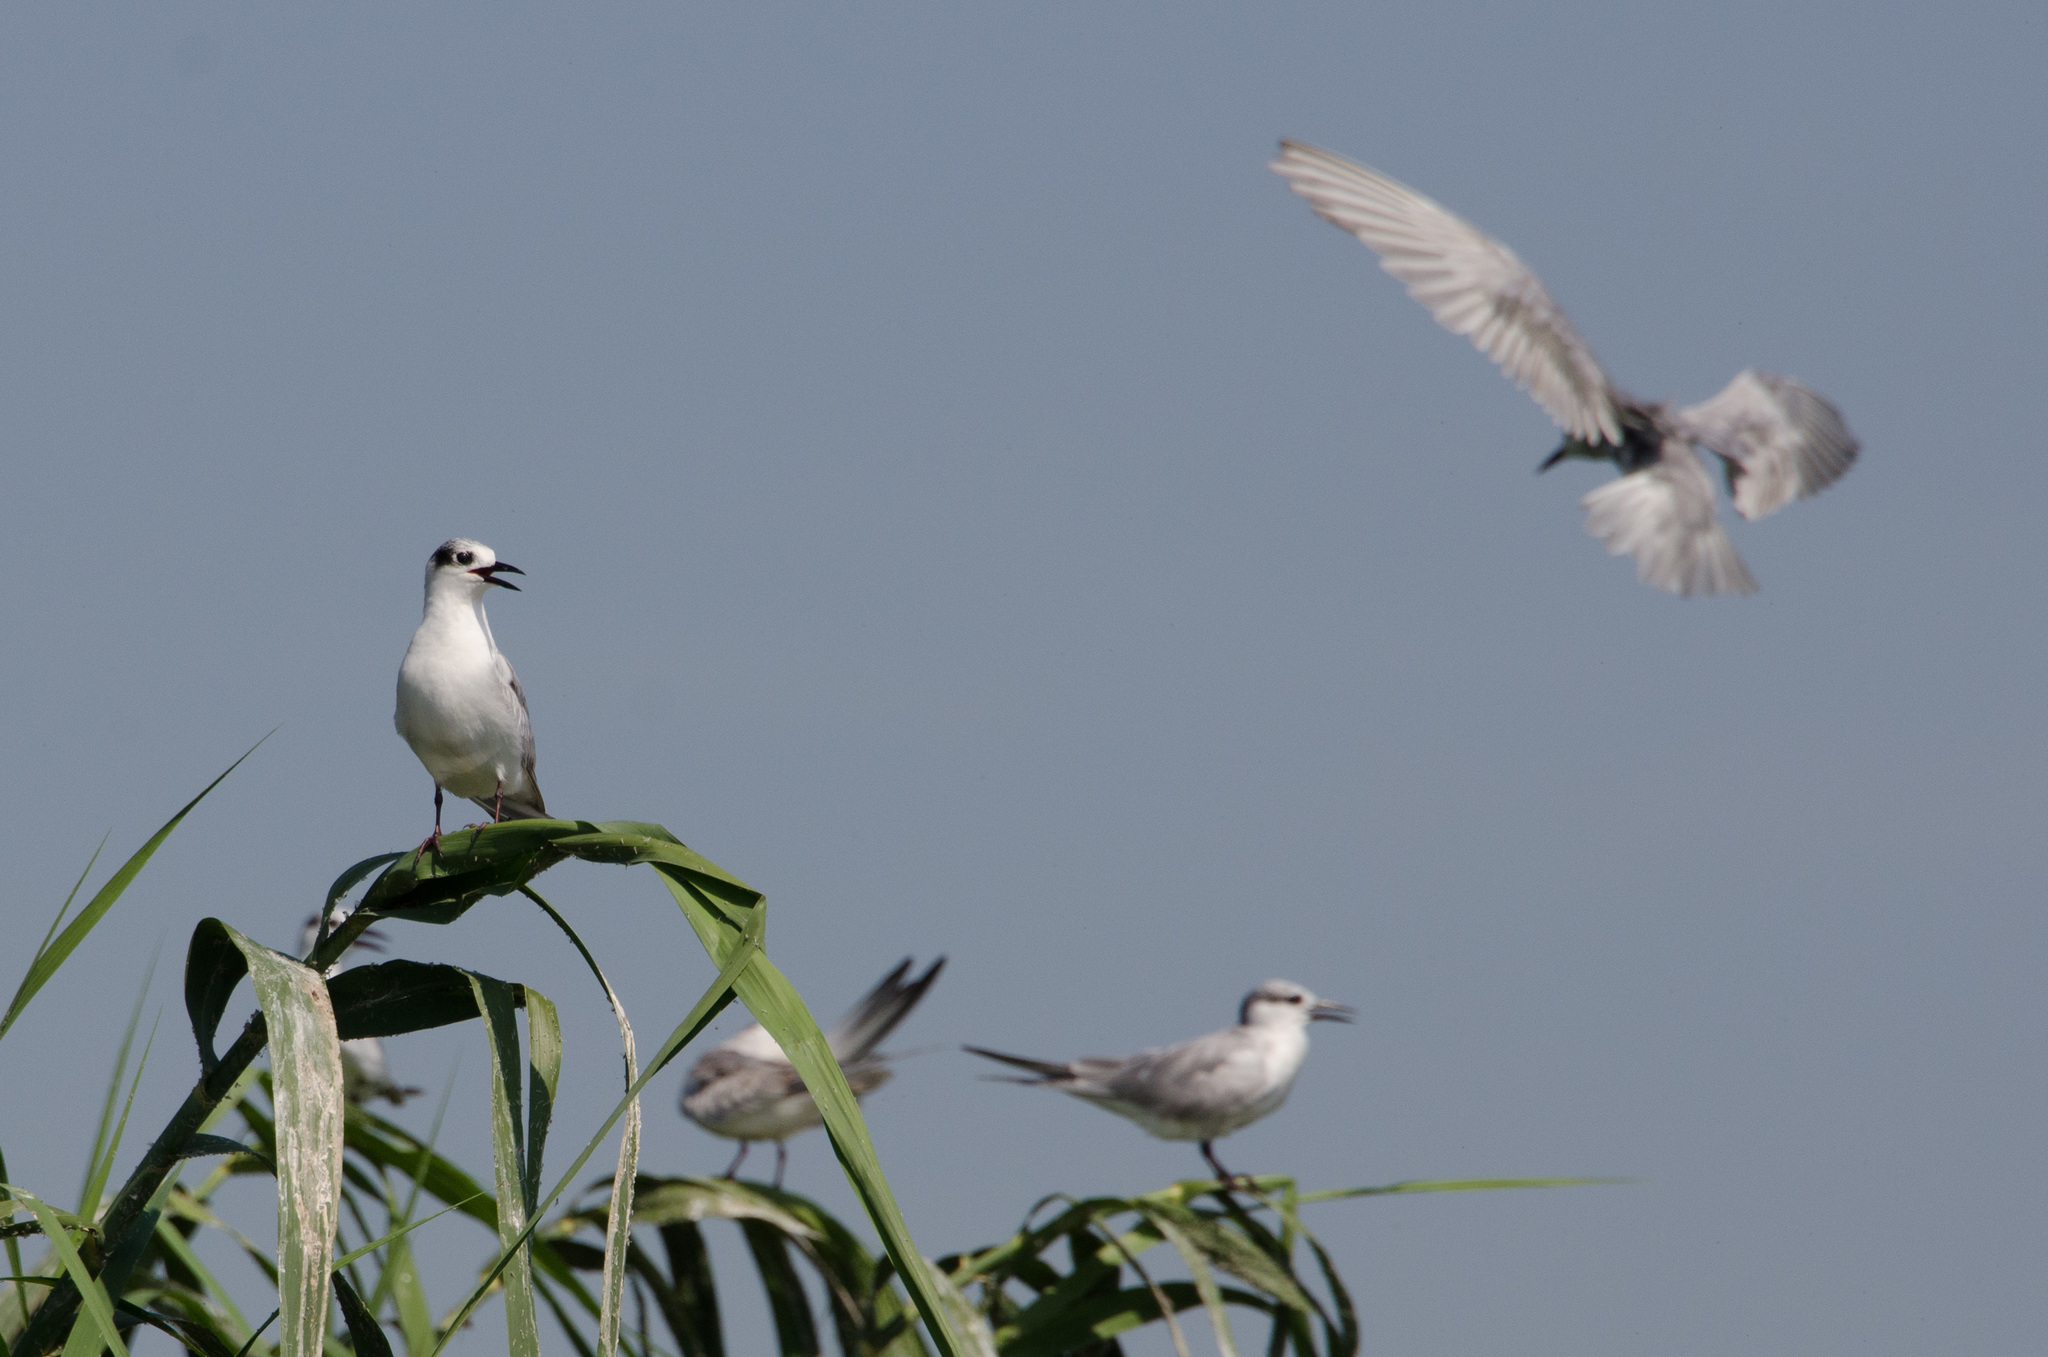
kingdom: Animalia
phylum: Chordata
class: Aves
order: Charadriiformes
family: Laridae
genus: Chlidonias
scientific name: Chlidonias hybrida
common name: Whiskered tern
